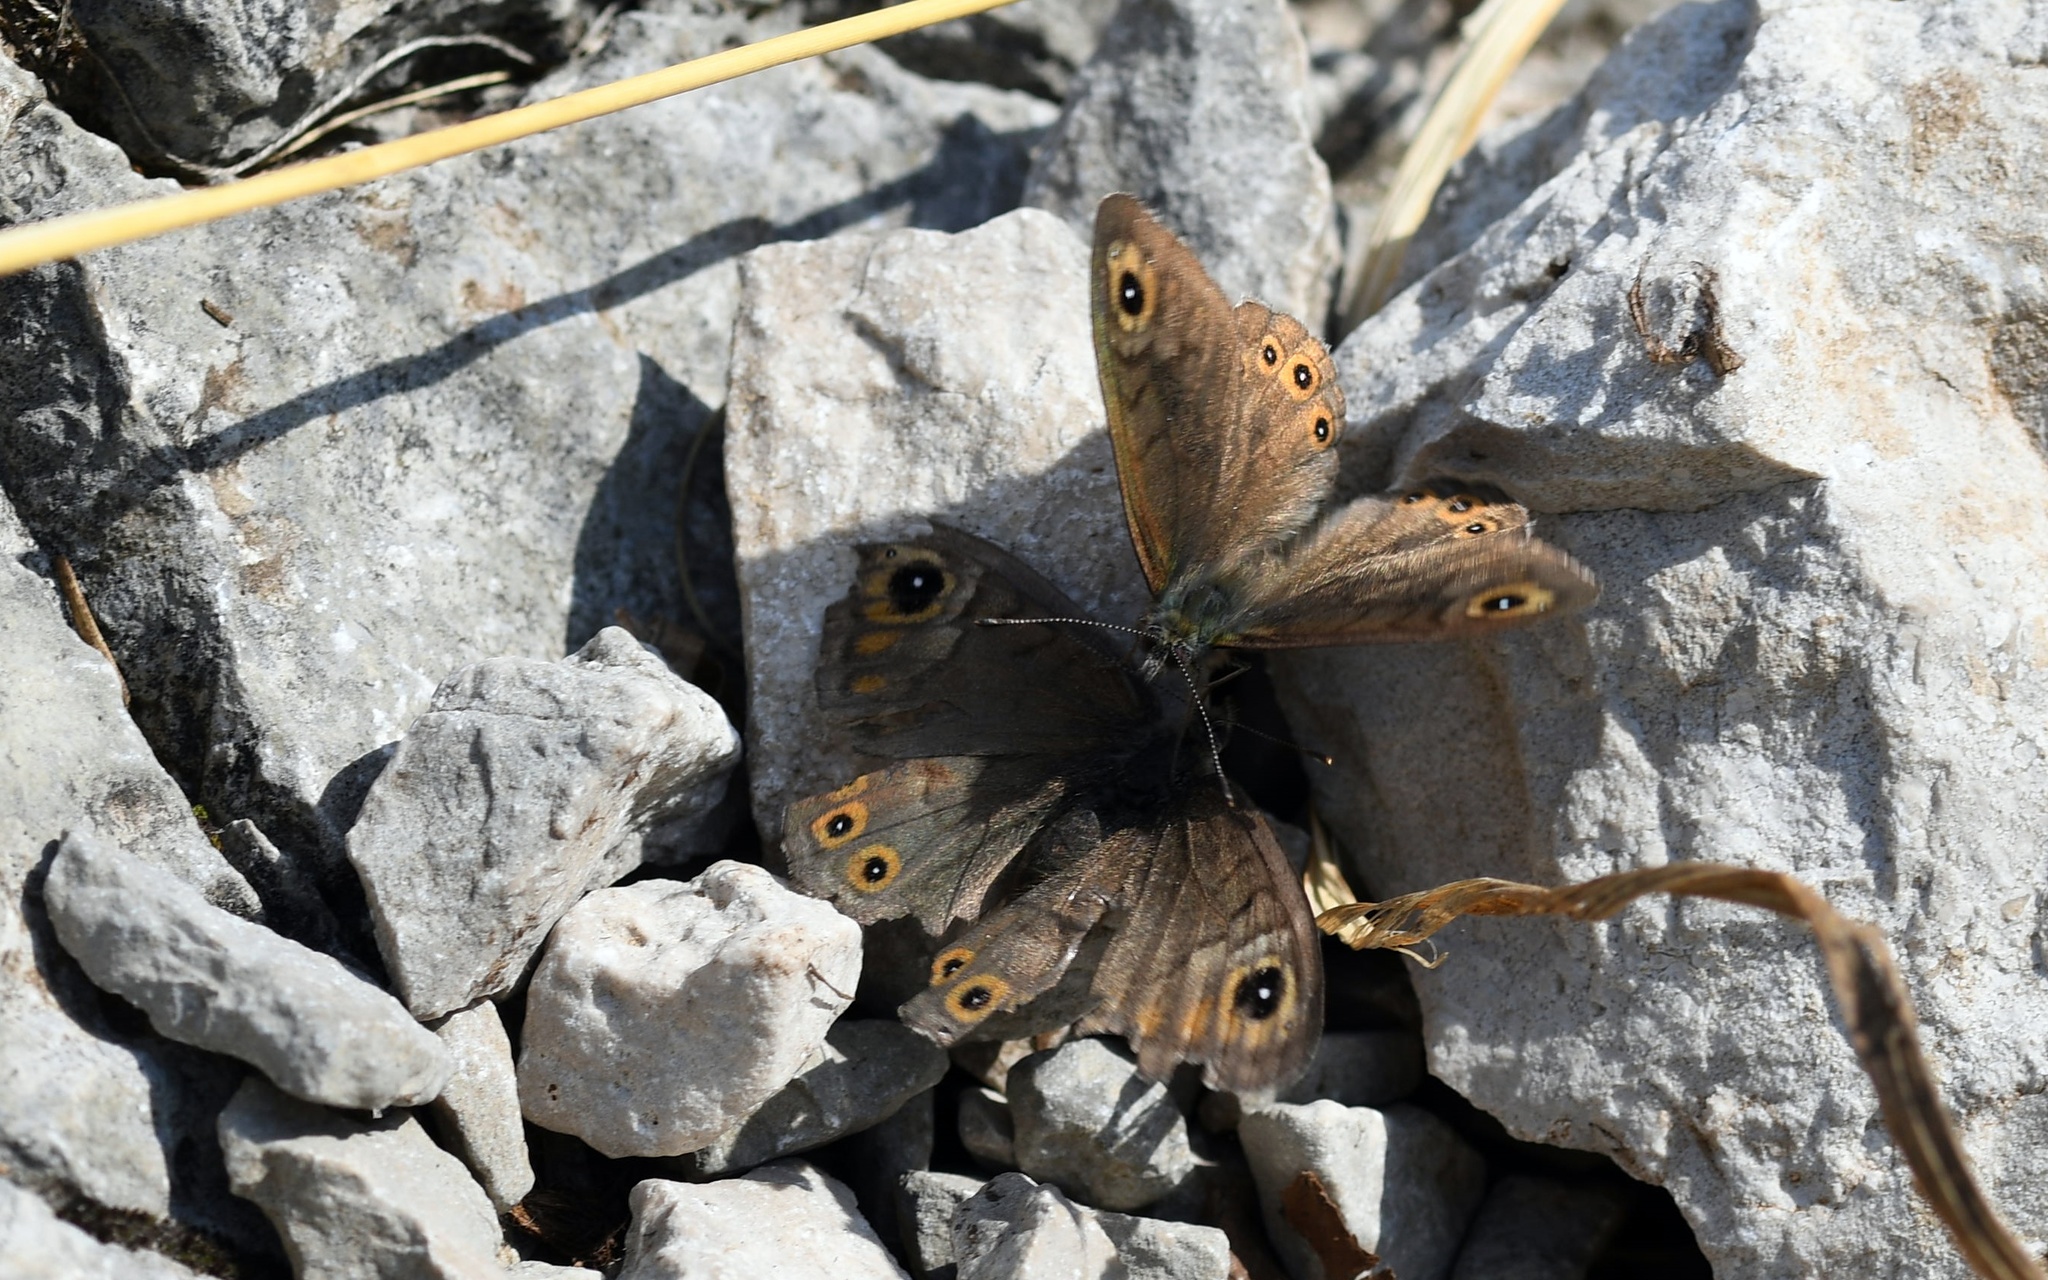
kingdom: Animalia
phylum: Arthropoda
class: Insecta
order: Lepidoptera
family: Nymphalidae
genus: Pararge
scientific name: Pararge petropolitana
